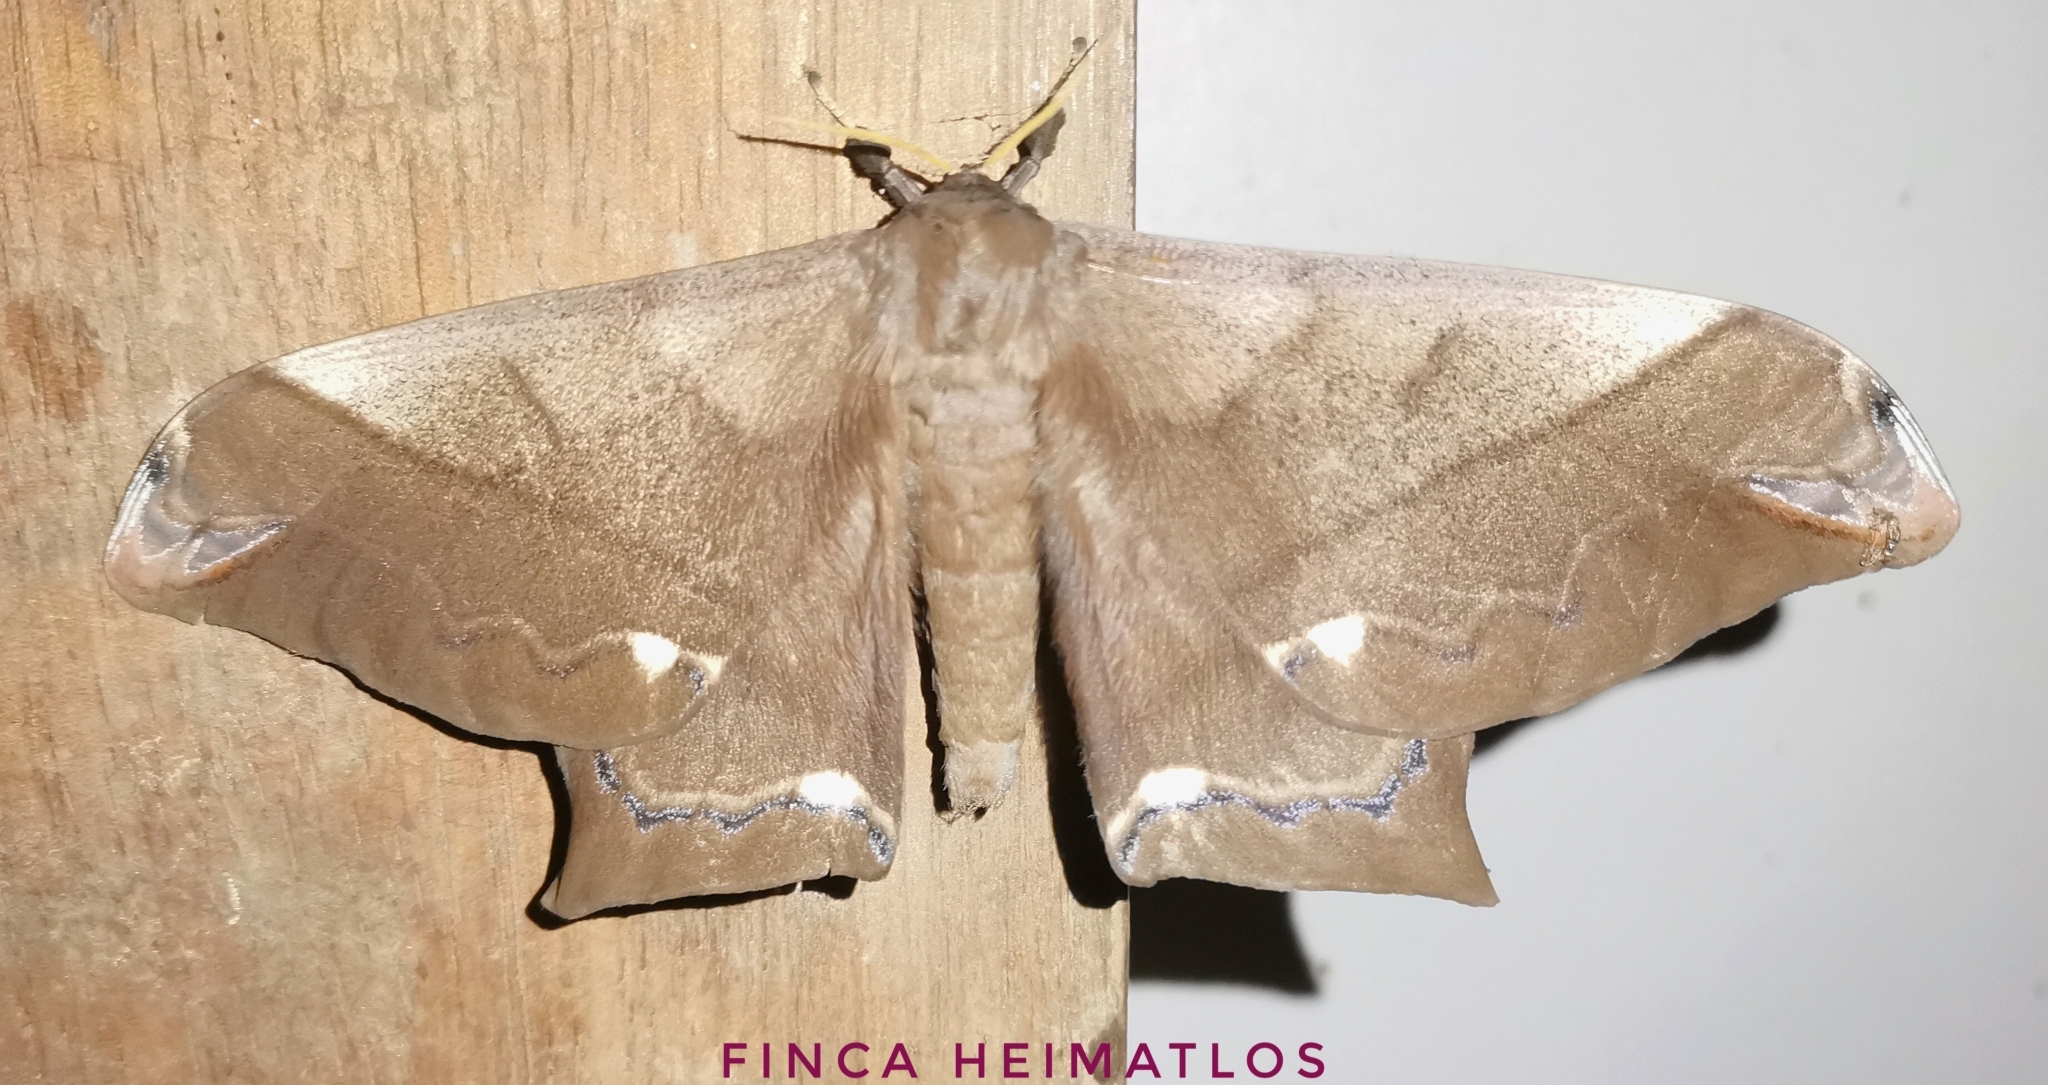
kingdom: Animalia
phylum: Arthropoda
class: Insecta
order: Lepidoptera
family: Saturniidae
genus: Arsenura
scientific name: Arsenura fuscata
